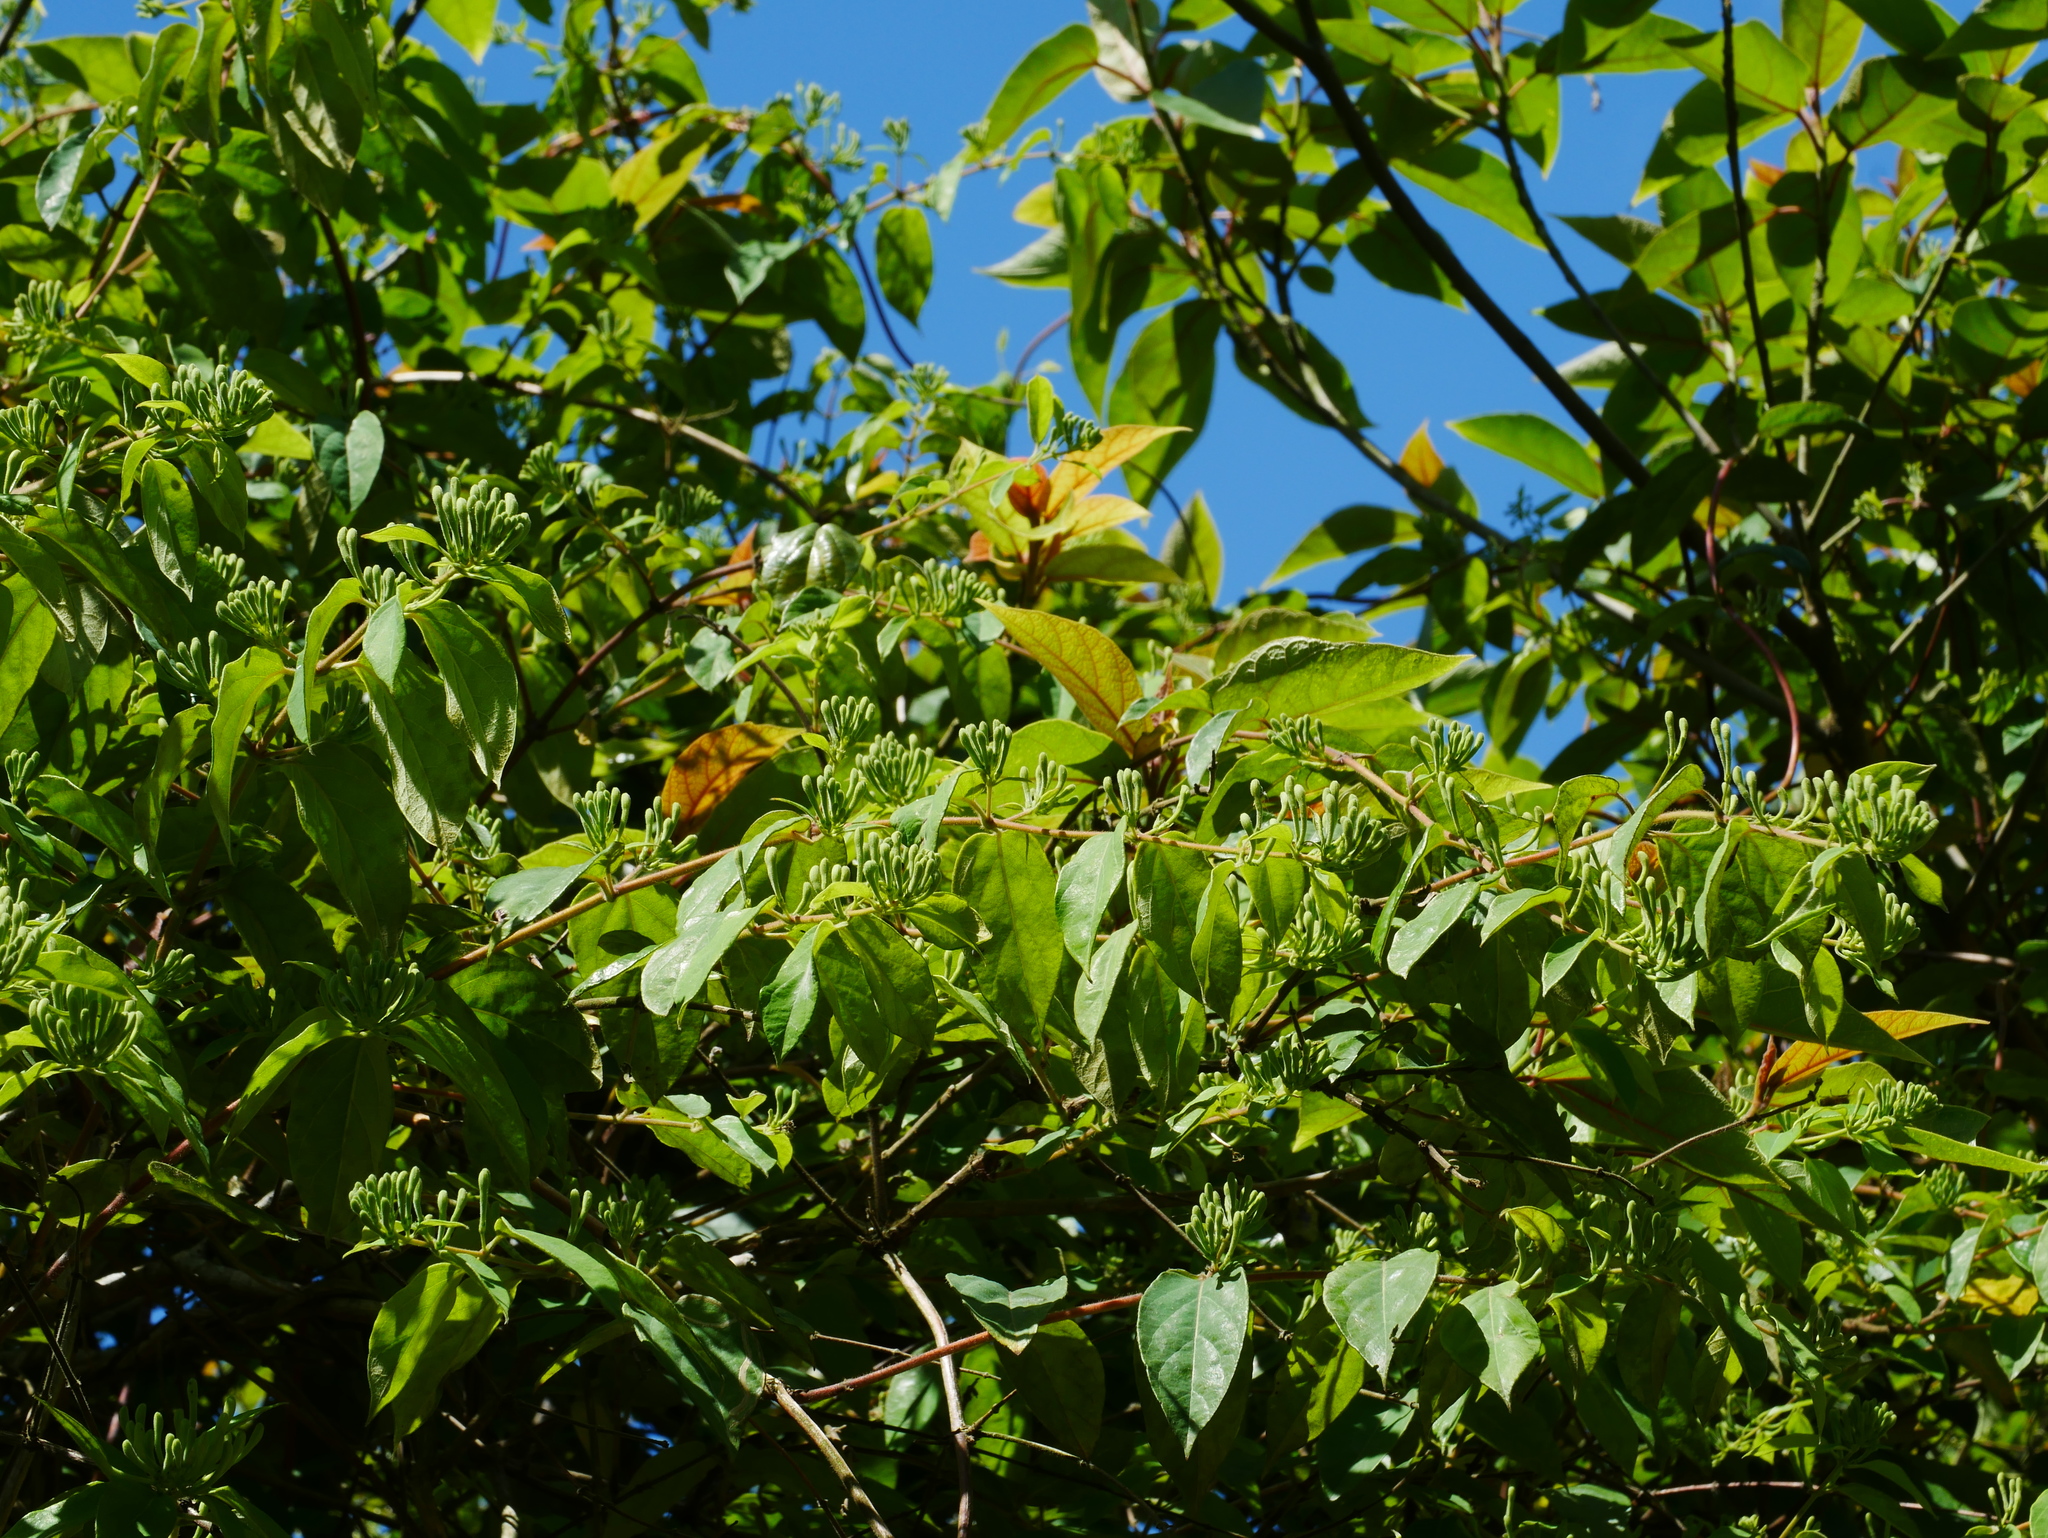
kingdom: Plantae
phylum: Tracheophyta
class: Magnoliopsida
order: Dipsacales
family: Caprifoliaceae
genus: Lonicera
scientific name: Lonicera hypoglauca
